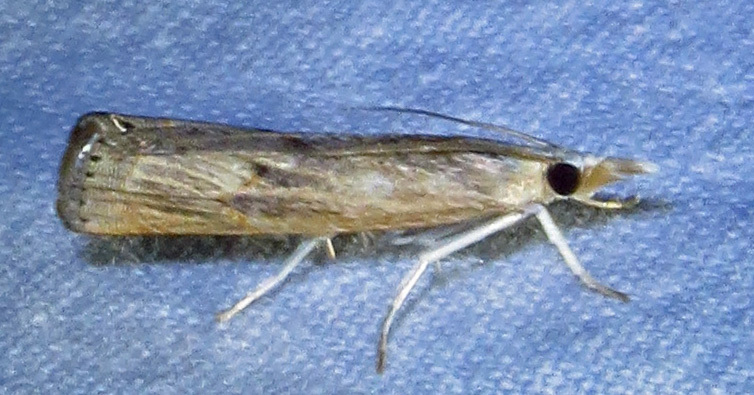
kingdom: Animalia
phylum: Arthropoda
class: Insecta
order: Lepidoptera
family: Crambidae
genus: Parapediasia
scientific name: Parapediasia teterellus
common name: Bluegrass webworm moth
